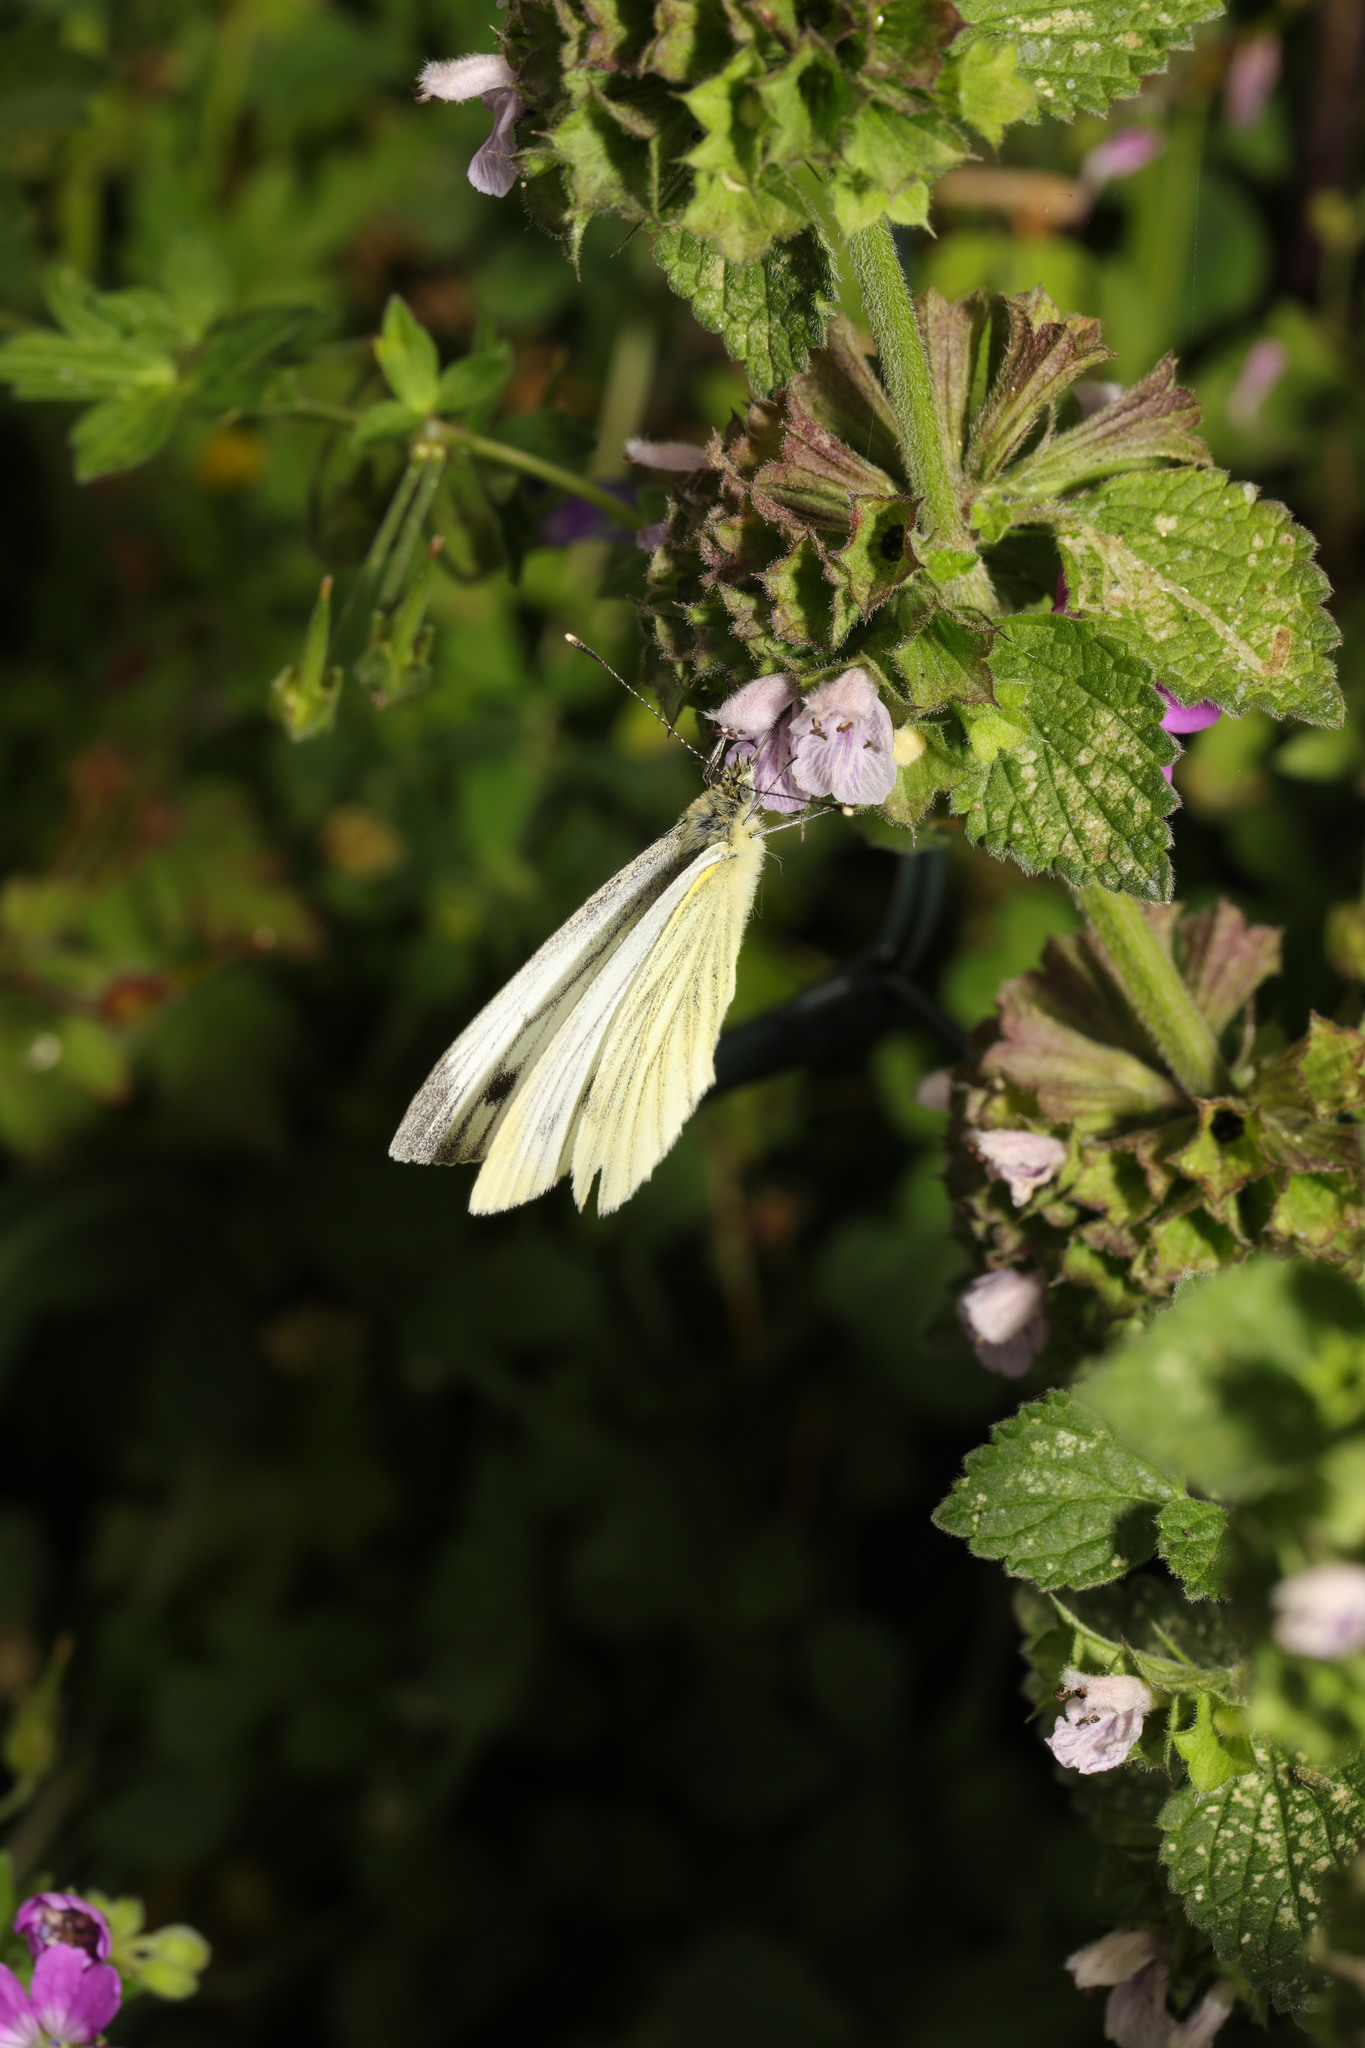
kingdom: Animalia
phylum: Arthropoda
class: Insecta
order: Lepidoptera
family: Pieridae
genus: Pieris
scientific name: Pieris napi
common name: Green-veined white
